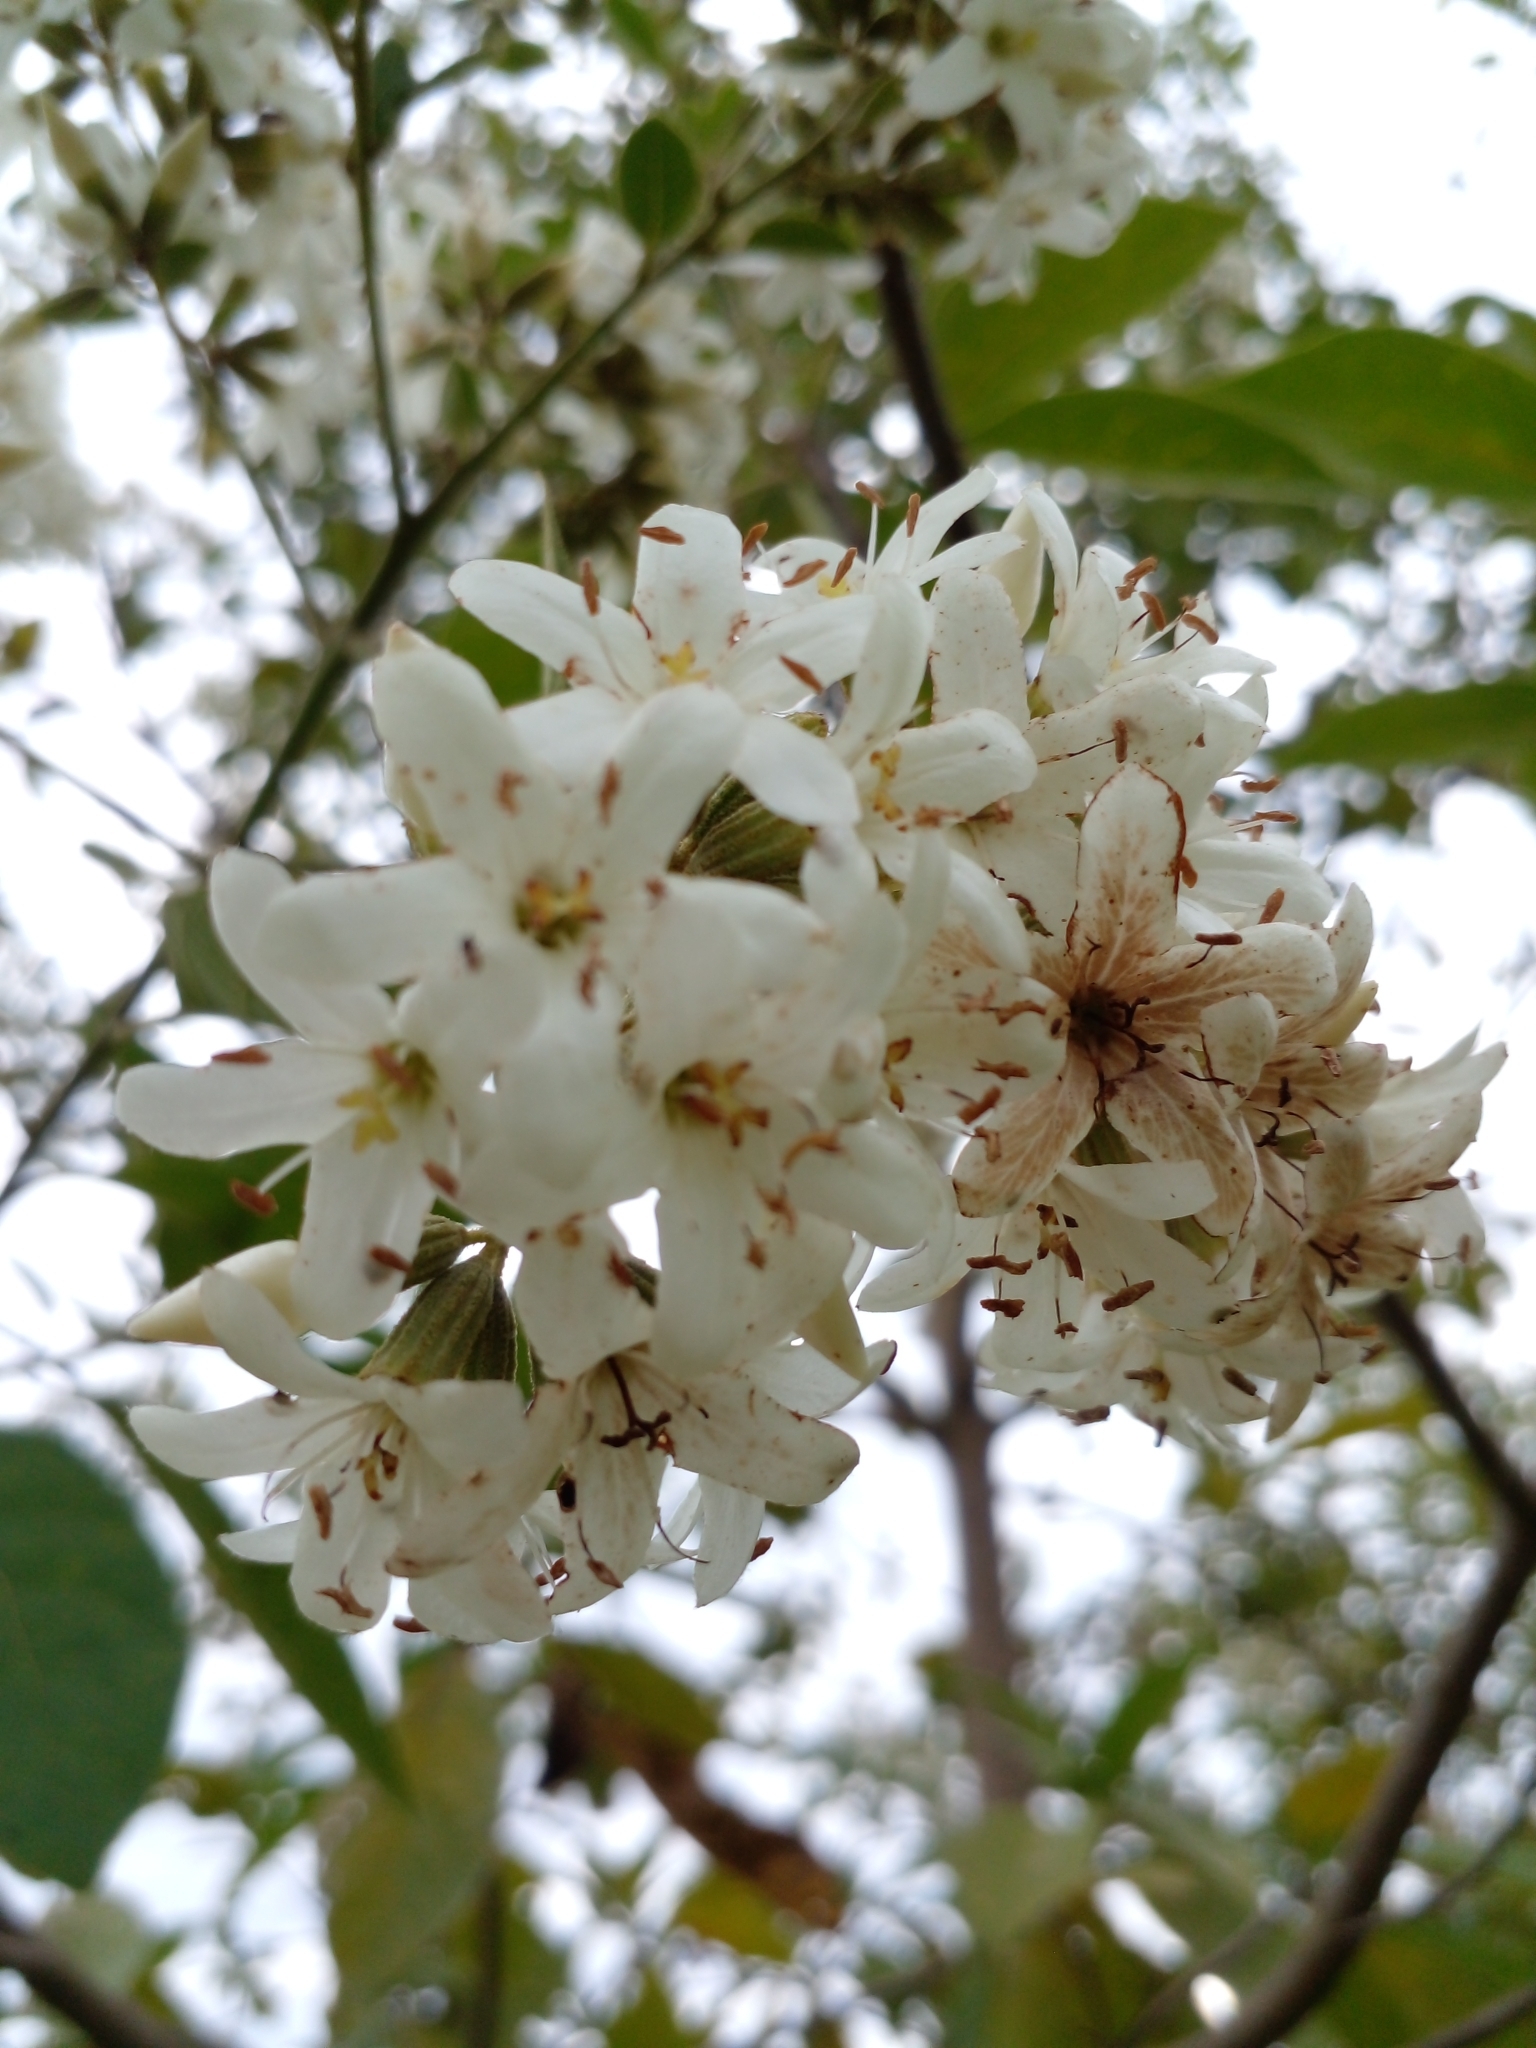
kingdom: Plantae
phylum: Tracheophyta
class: Magnoliopsida
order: Boraginales
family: Cordiaceae
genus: Cordia
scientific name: Cordia trichotoma
